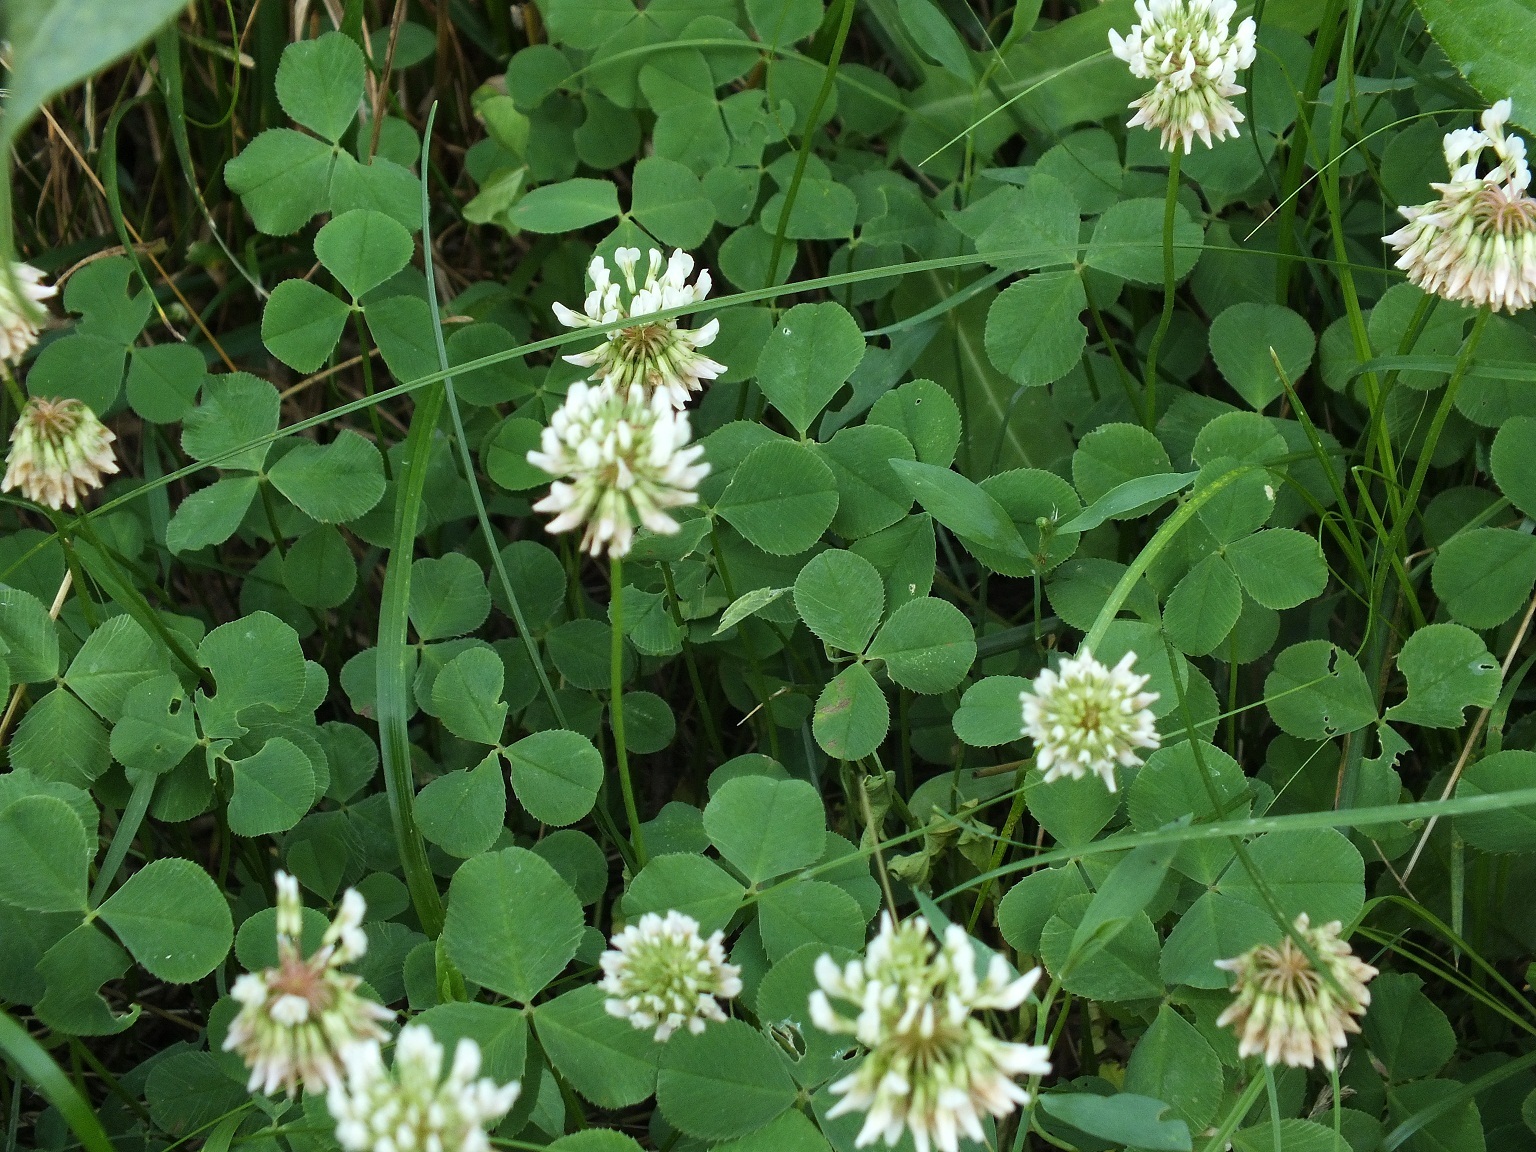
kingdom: Plantae
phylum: Tracheophyta
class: Magnoliopsida
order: Fabales
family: Fabaceae
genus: Trifolium
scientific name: Trifolium repens
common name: White clover
